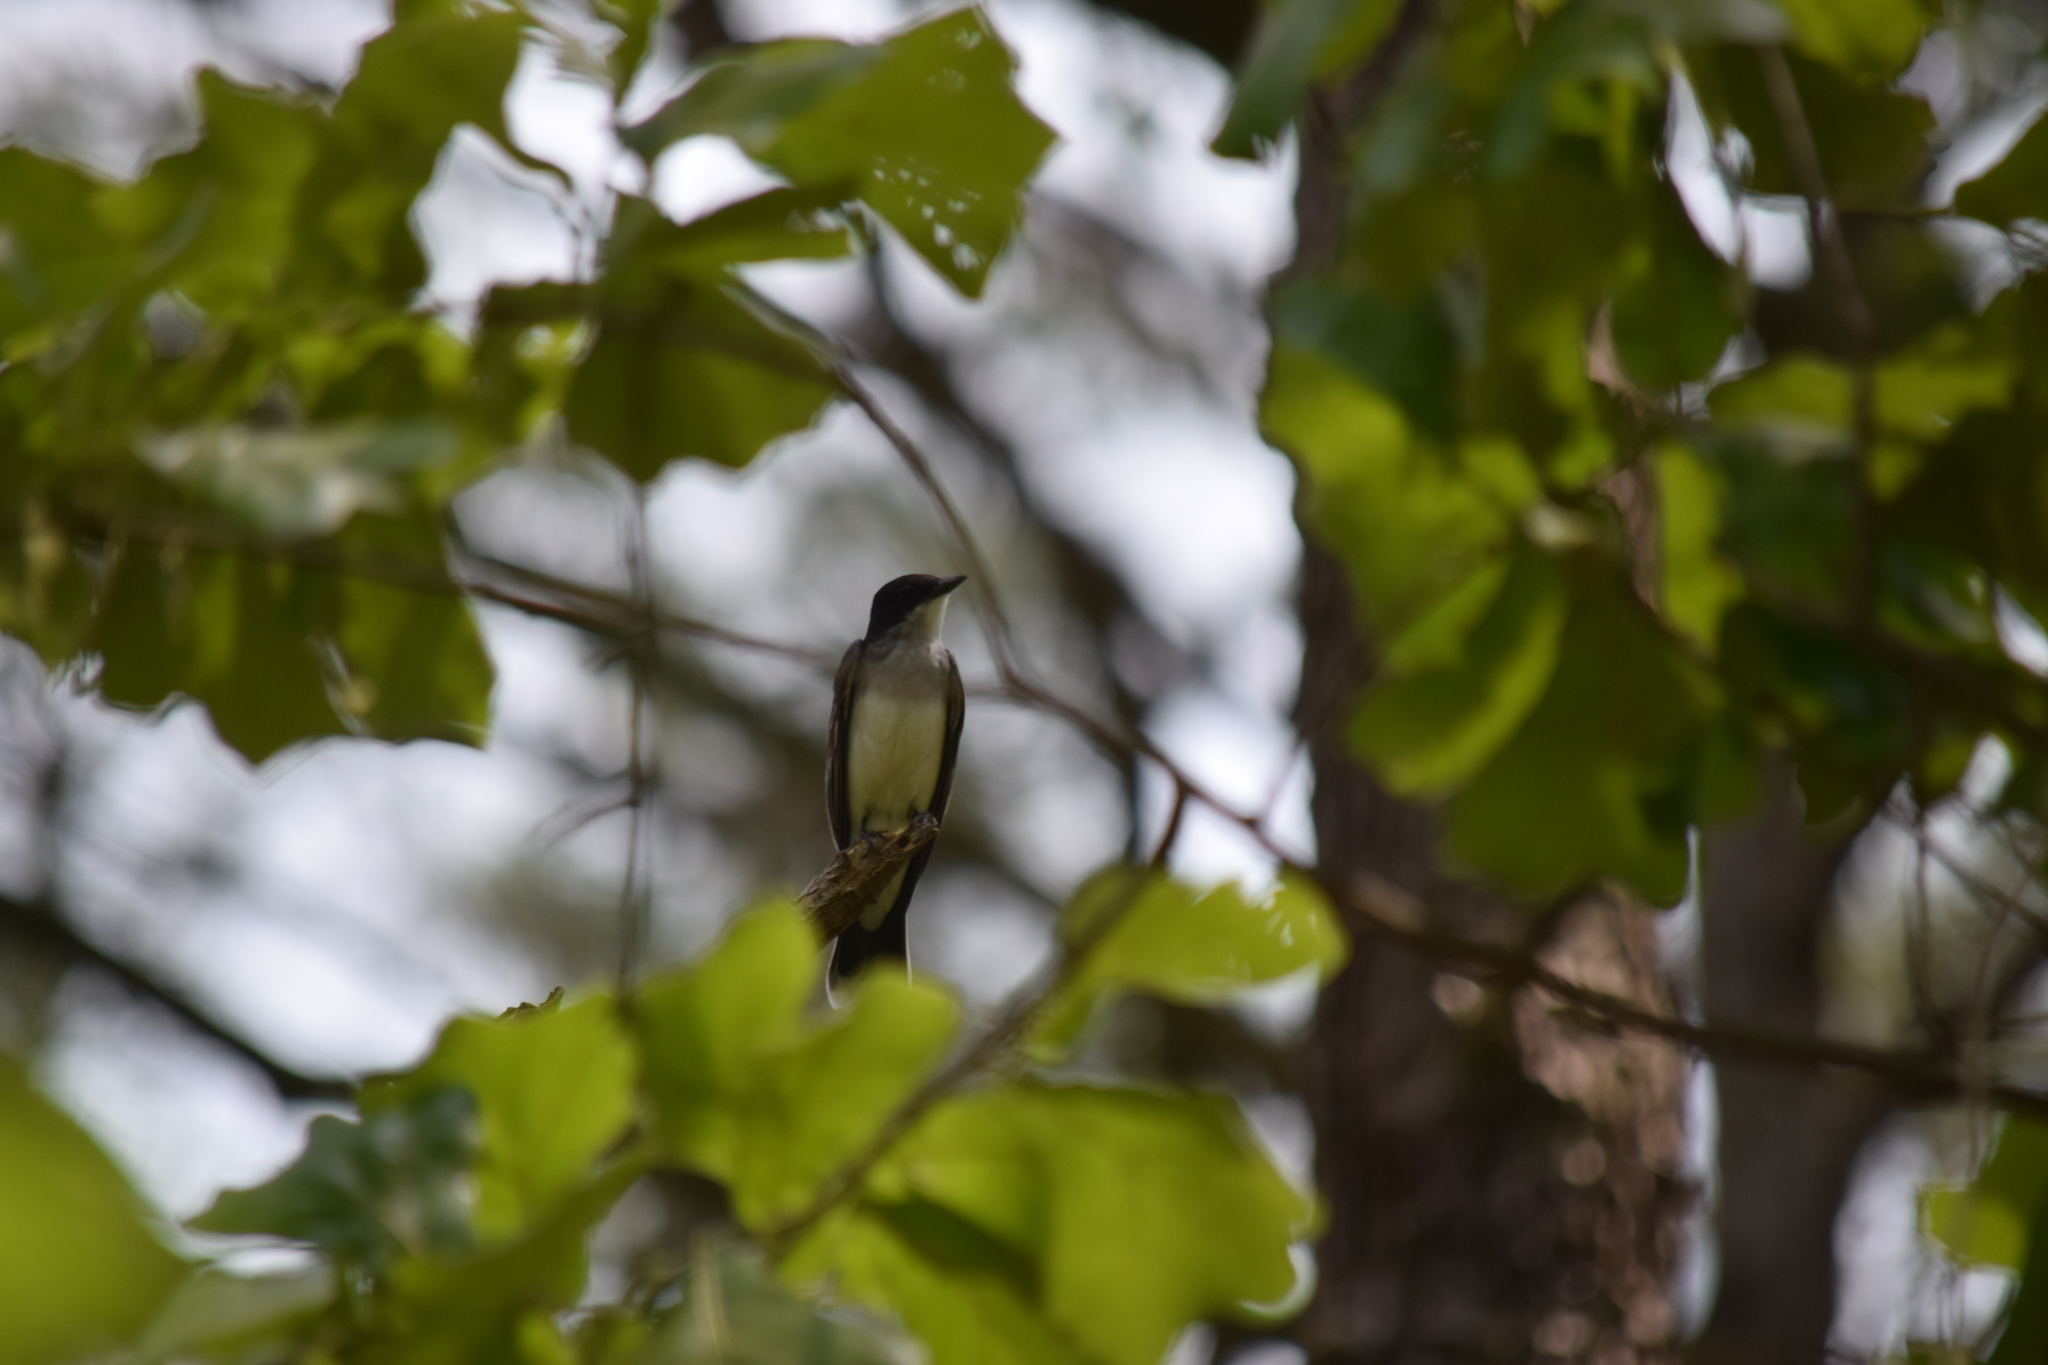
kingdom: Animalia
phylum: Chordata
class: Aves
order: Passeriformes
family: Tyrannidae
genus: Tyrannus
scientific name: Tyrannus tyrannus
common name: Eastern kingbird
